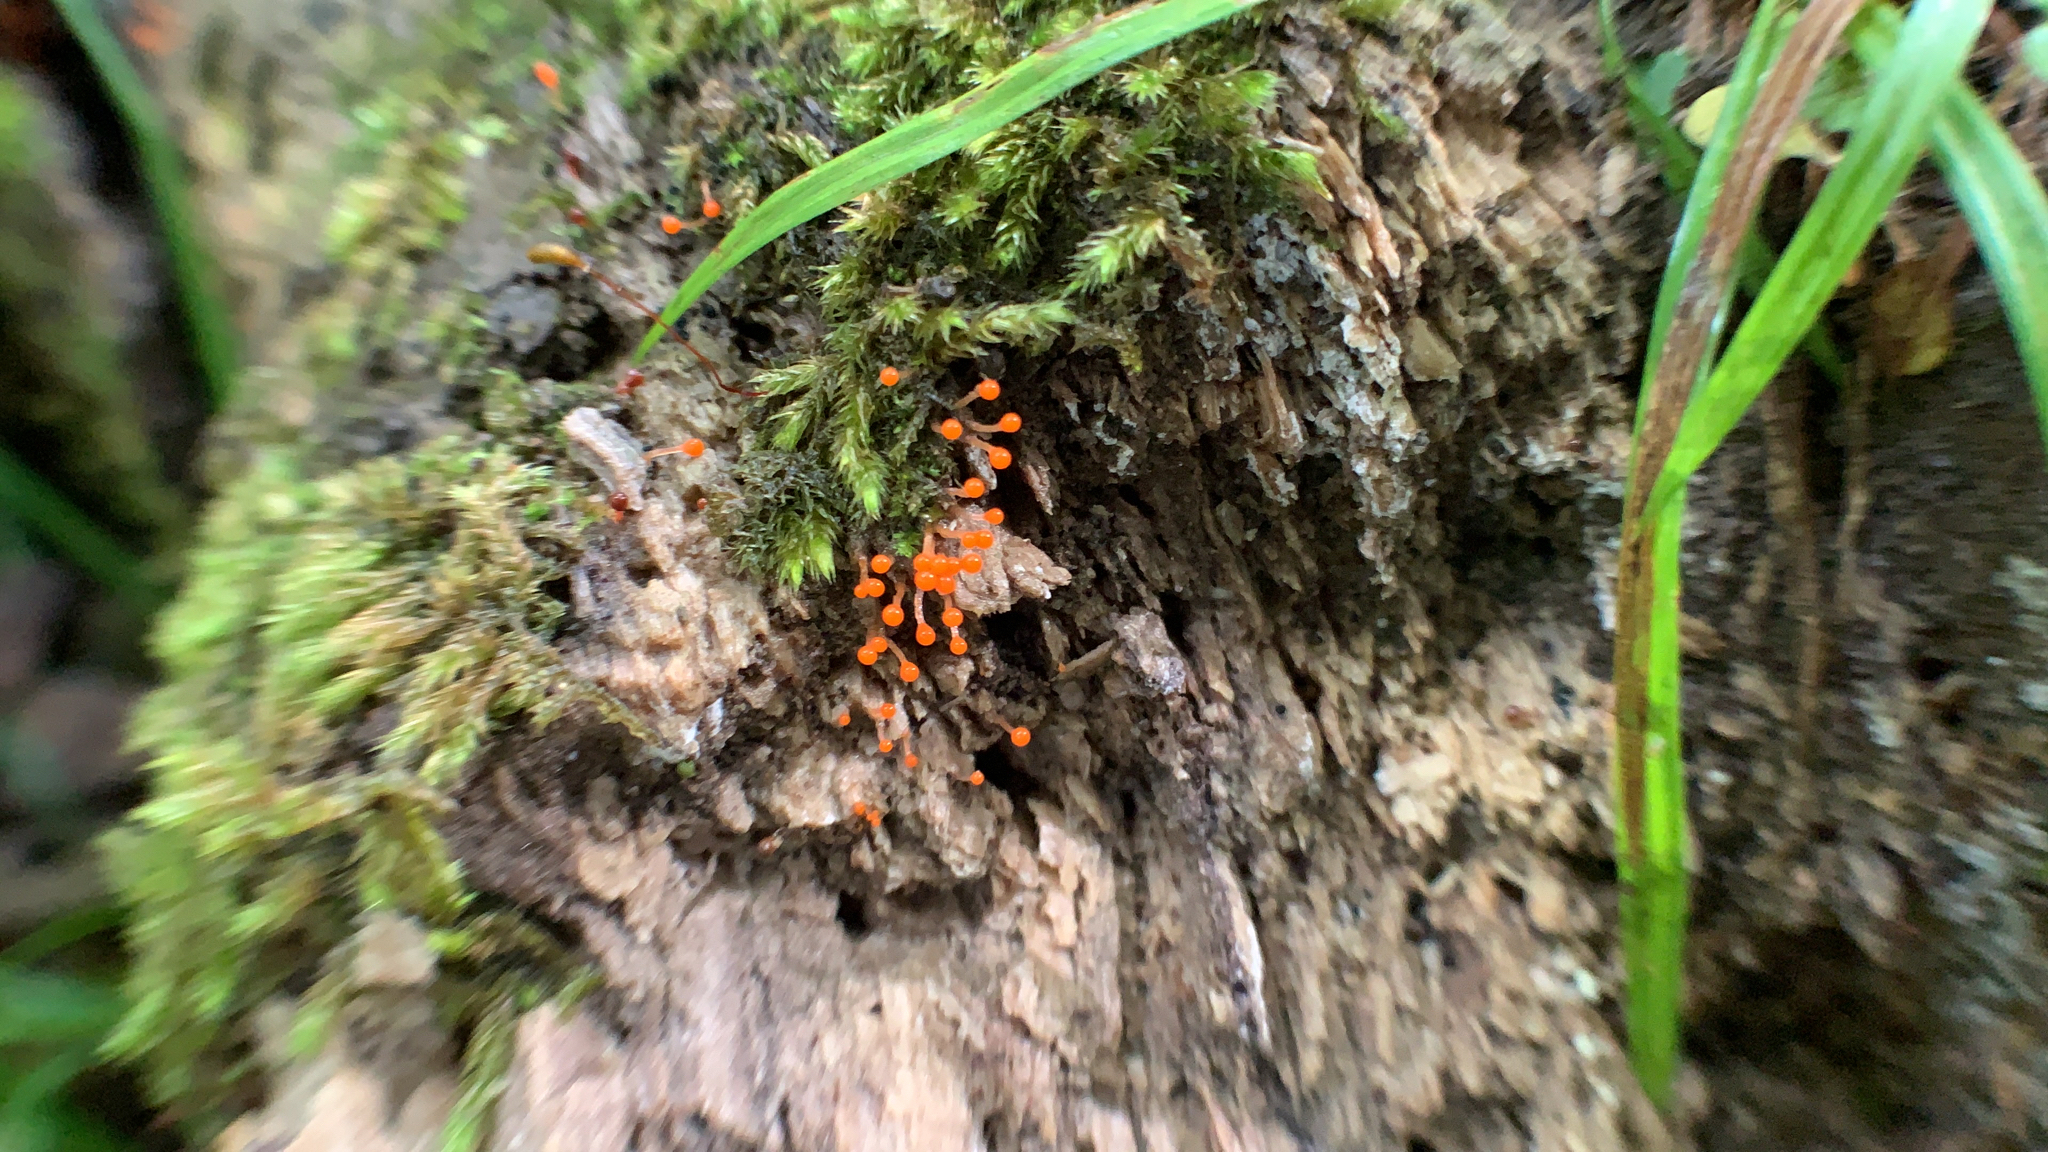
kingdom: Protozoa
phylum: Mycetozoa
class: Myxomycetes
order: Trichiales
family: Arcyriaceae
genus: Hemitrichia
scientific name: Hemitrichia decipiens
